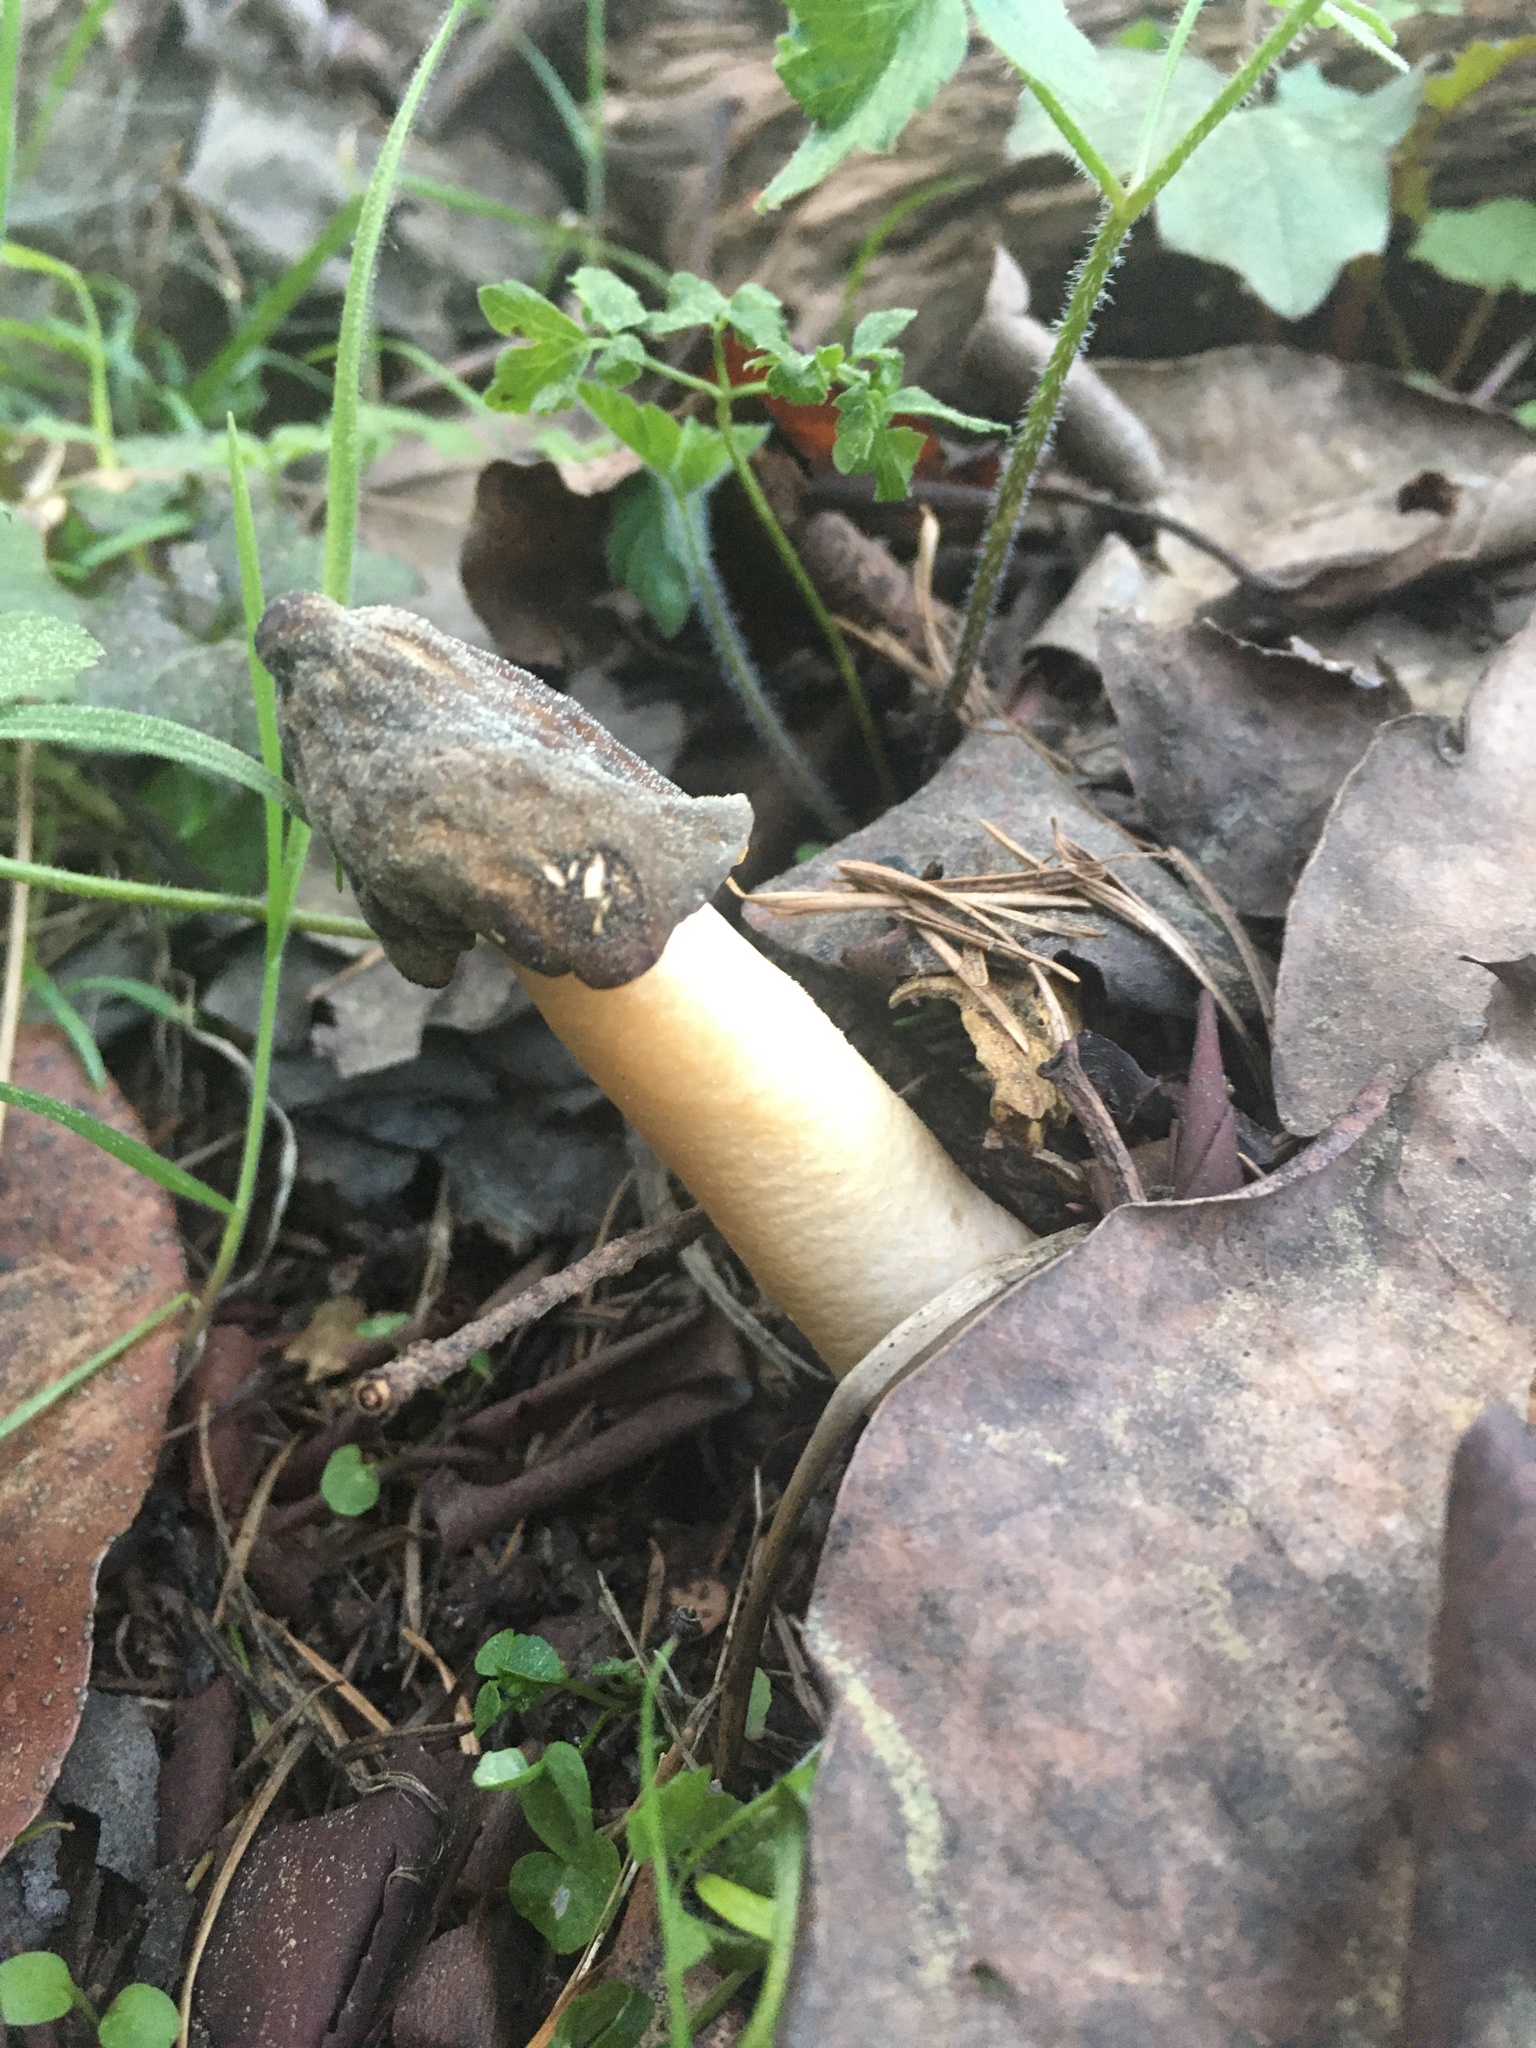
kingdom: Fungi
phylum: Ascomycota
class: Pezizomycetes
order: Pezizales
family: Morchellaceae
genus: Verpa
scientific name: Verpa conica
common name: Thimble morel
